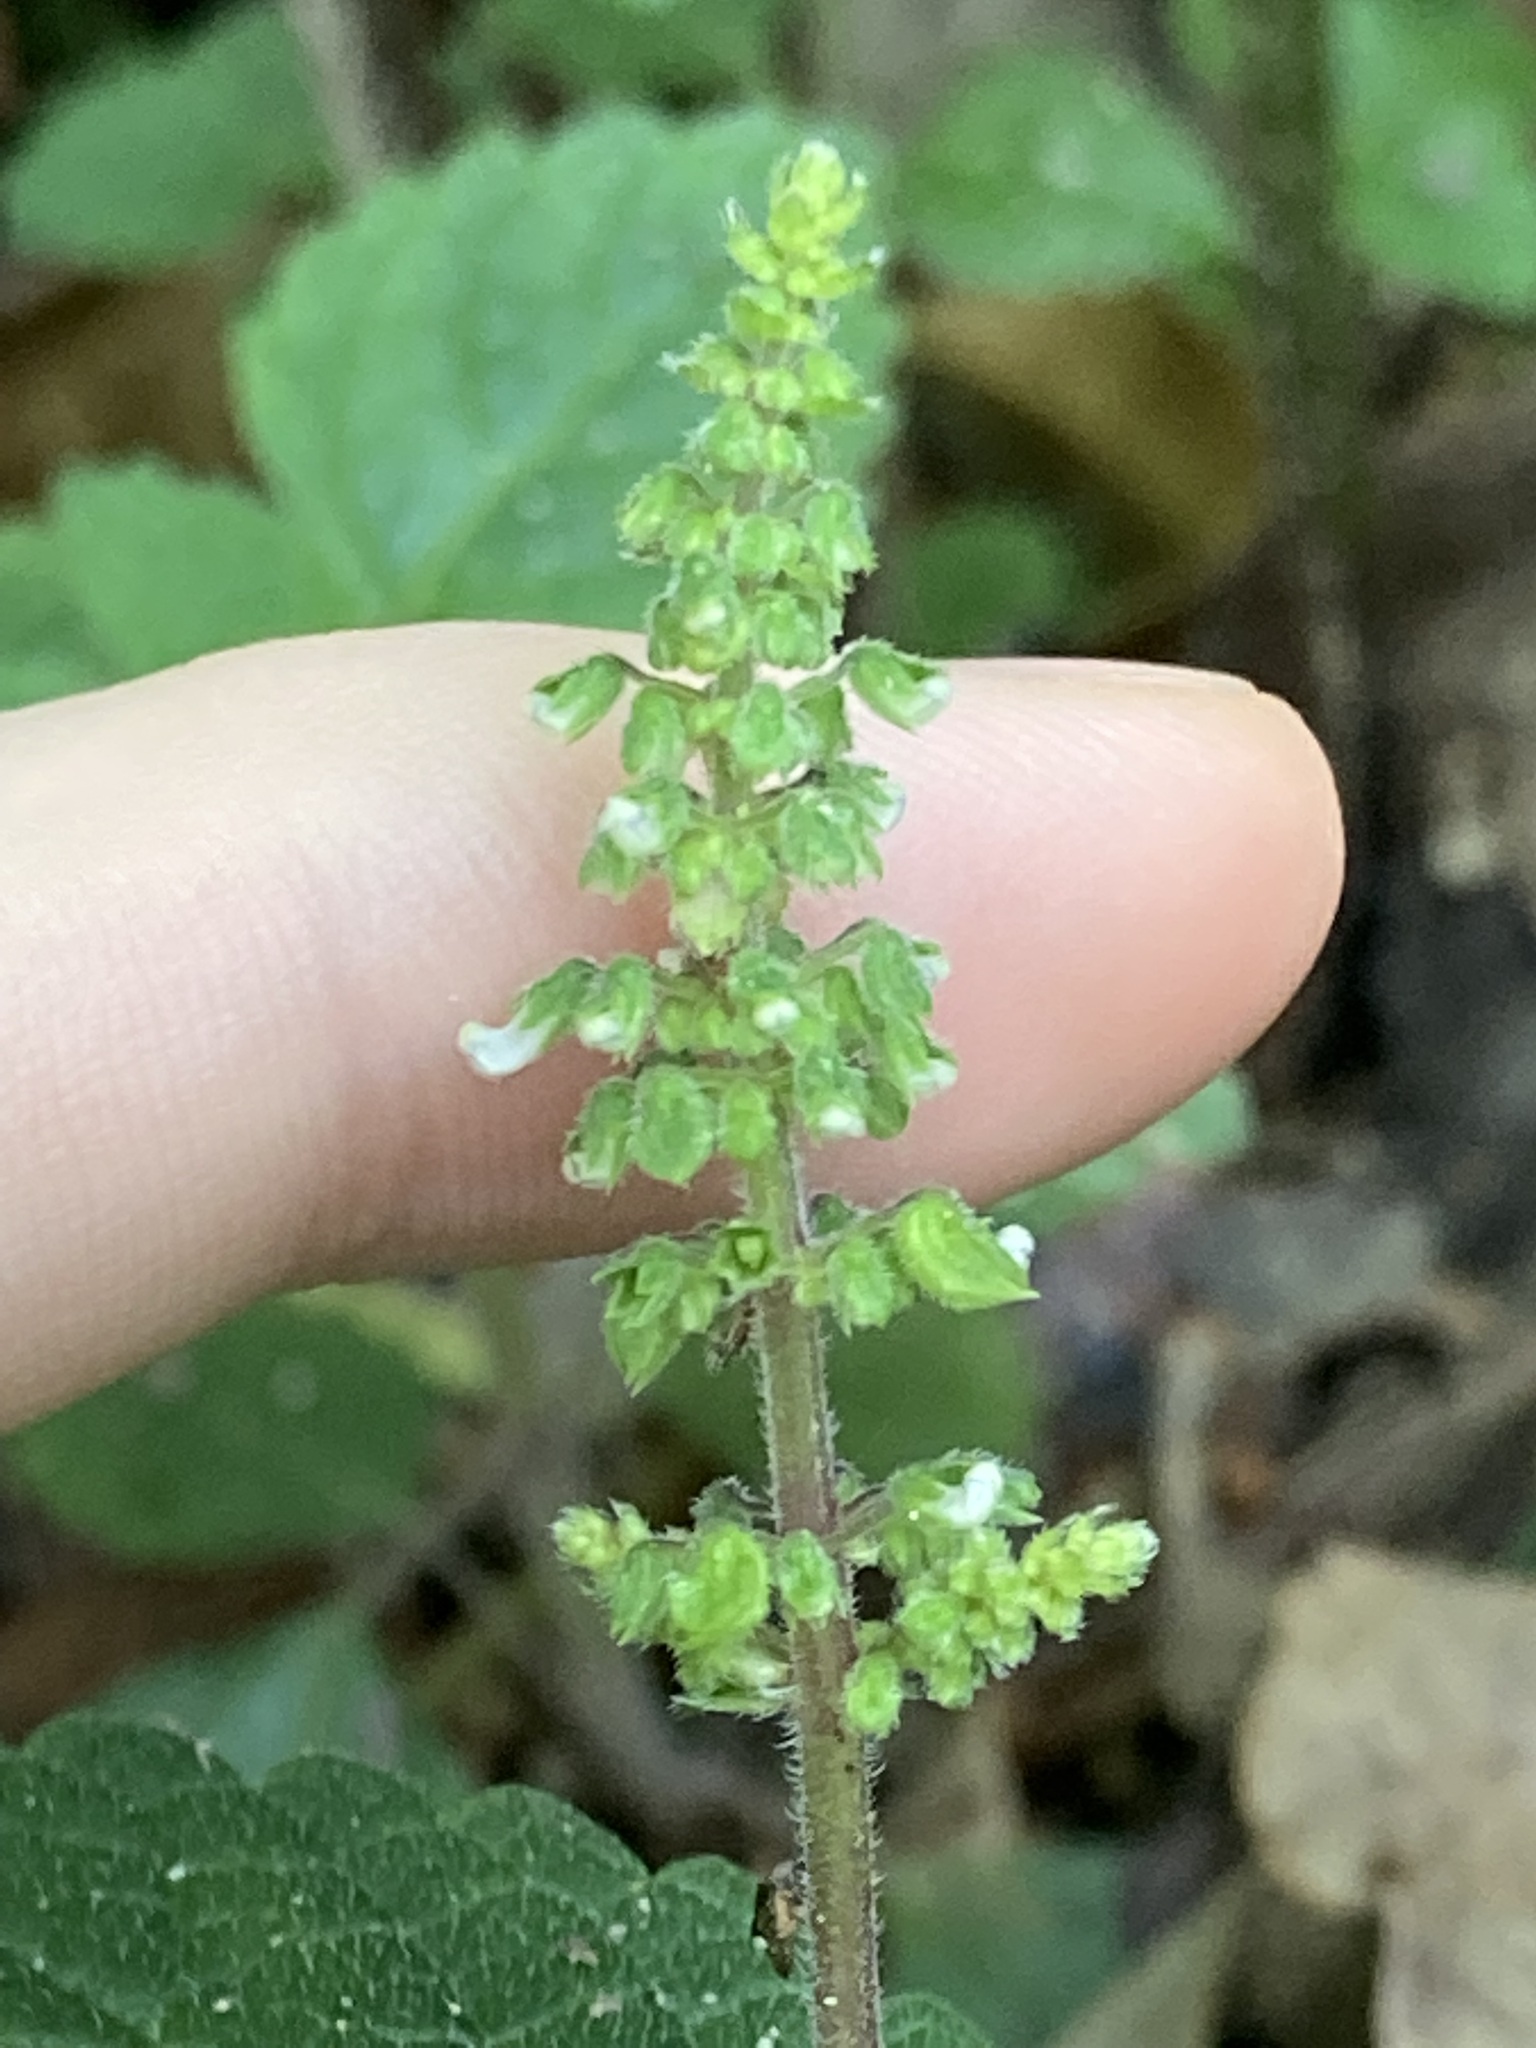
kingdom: Plantae
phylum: Tracheophyta
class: Magnoliopsida
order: Lamiales
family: Lamiaceae
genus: Coleus
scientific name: Coleus australis
